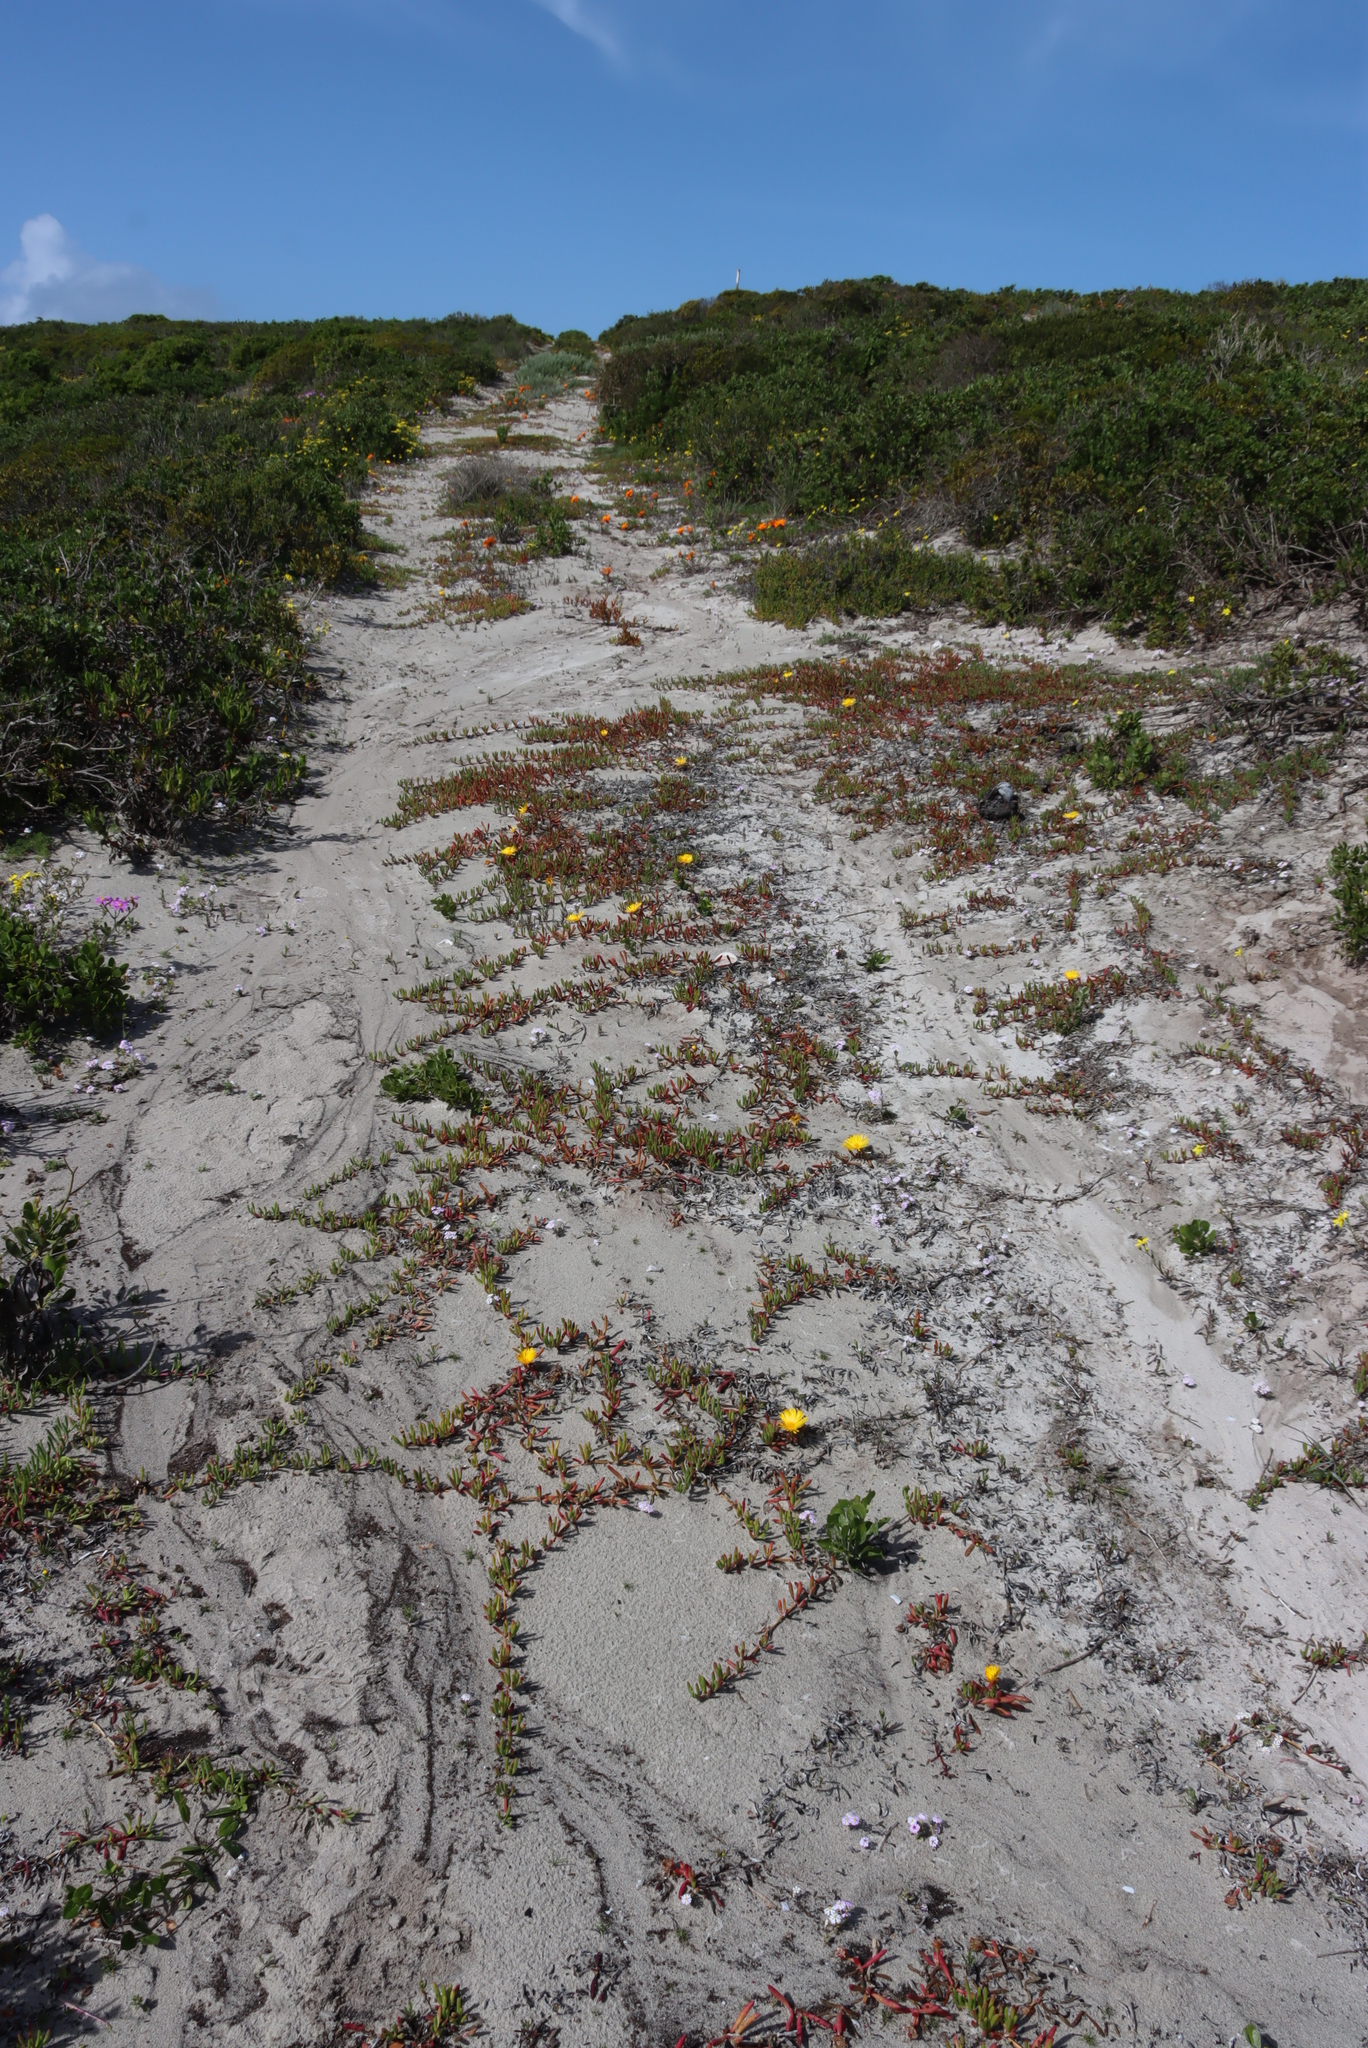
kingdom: Plantae
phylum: Tracheophyta
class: Magnoliopsida
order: Caryophyllales
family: Aizoaceae
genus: Jordaaniella
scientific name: Jordaaniella dubia
